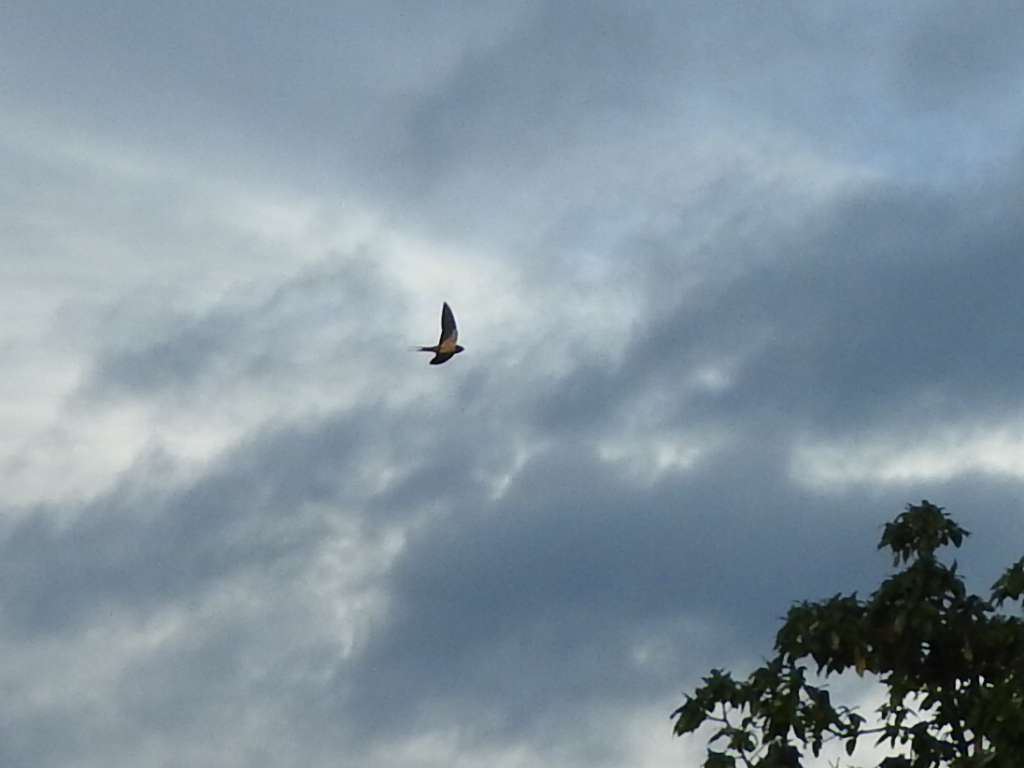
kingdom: Animalia
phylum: Chordata
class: Aves
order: Passeriformes
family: Hirundinidae
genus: Hirundo
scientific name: Hirundo rustica
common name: Barn swallow
